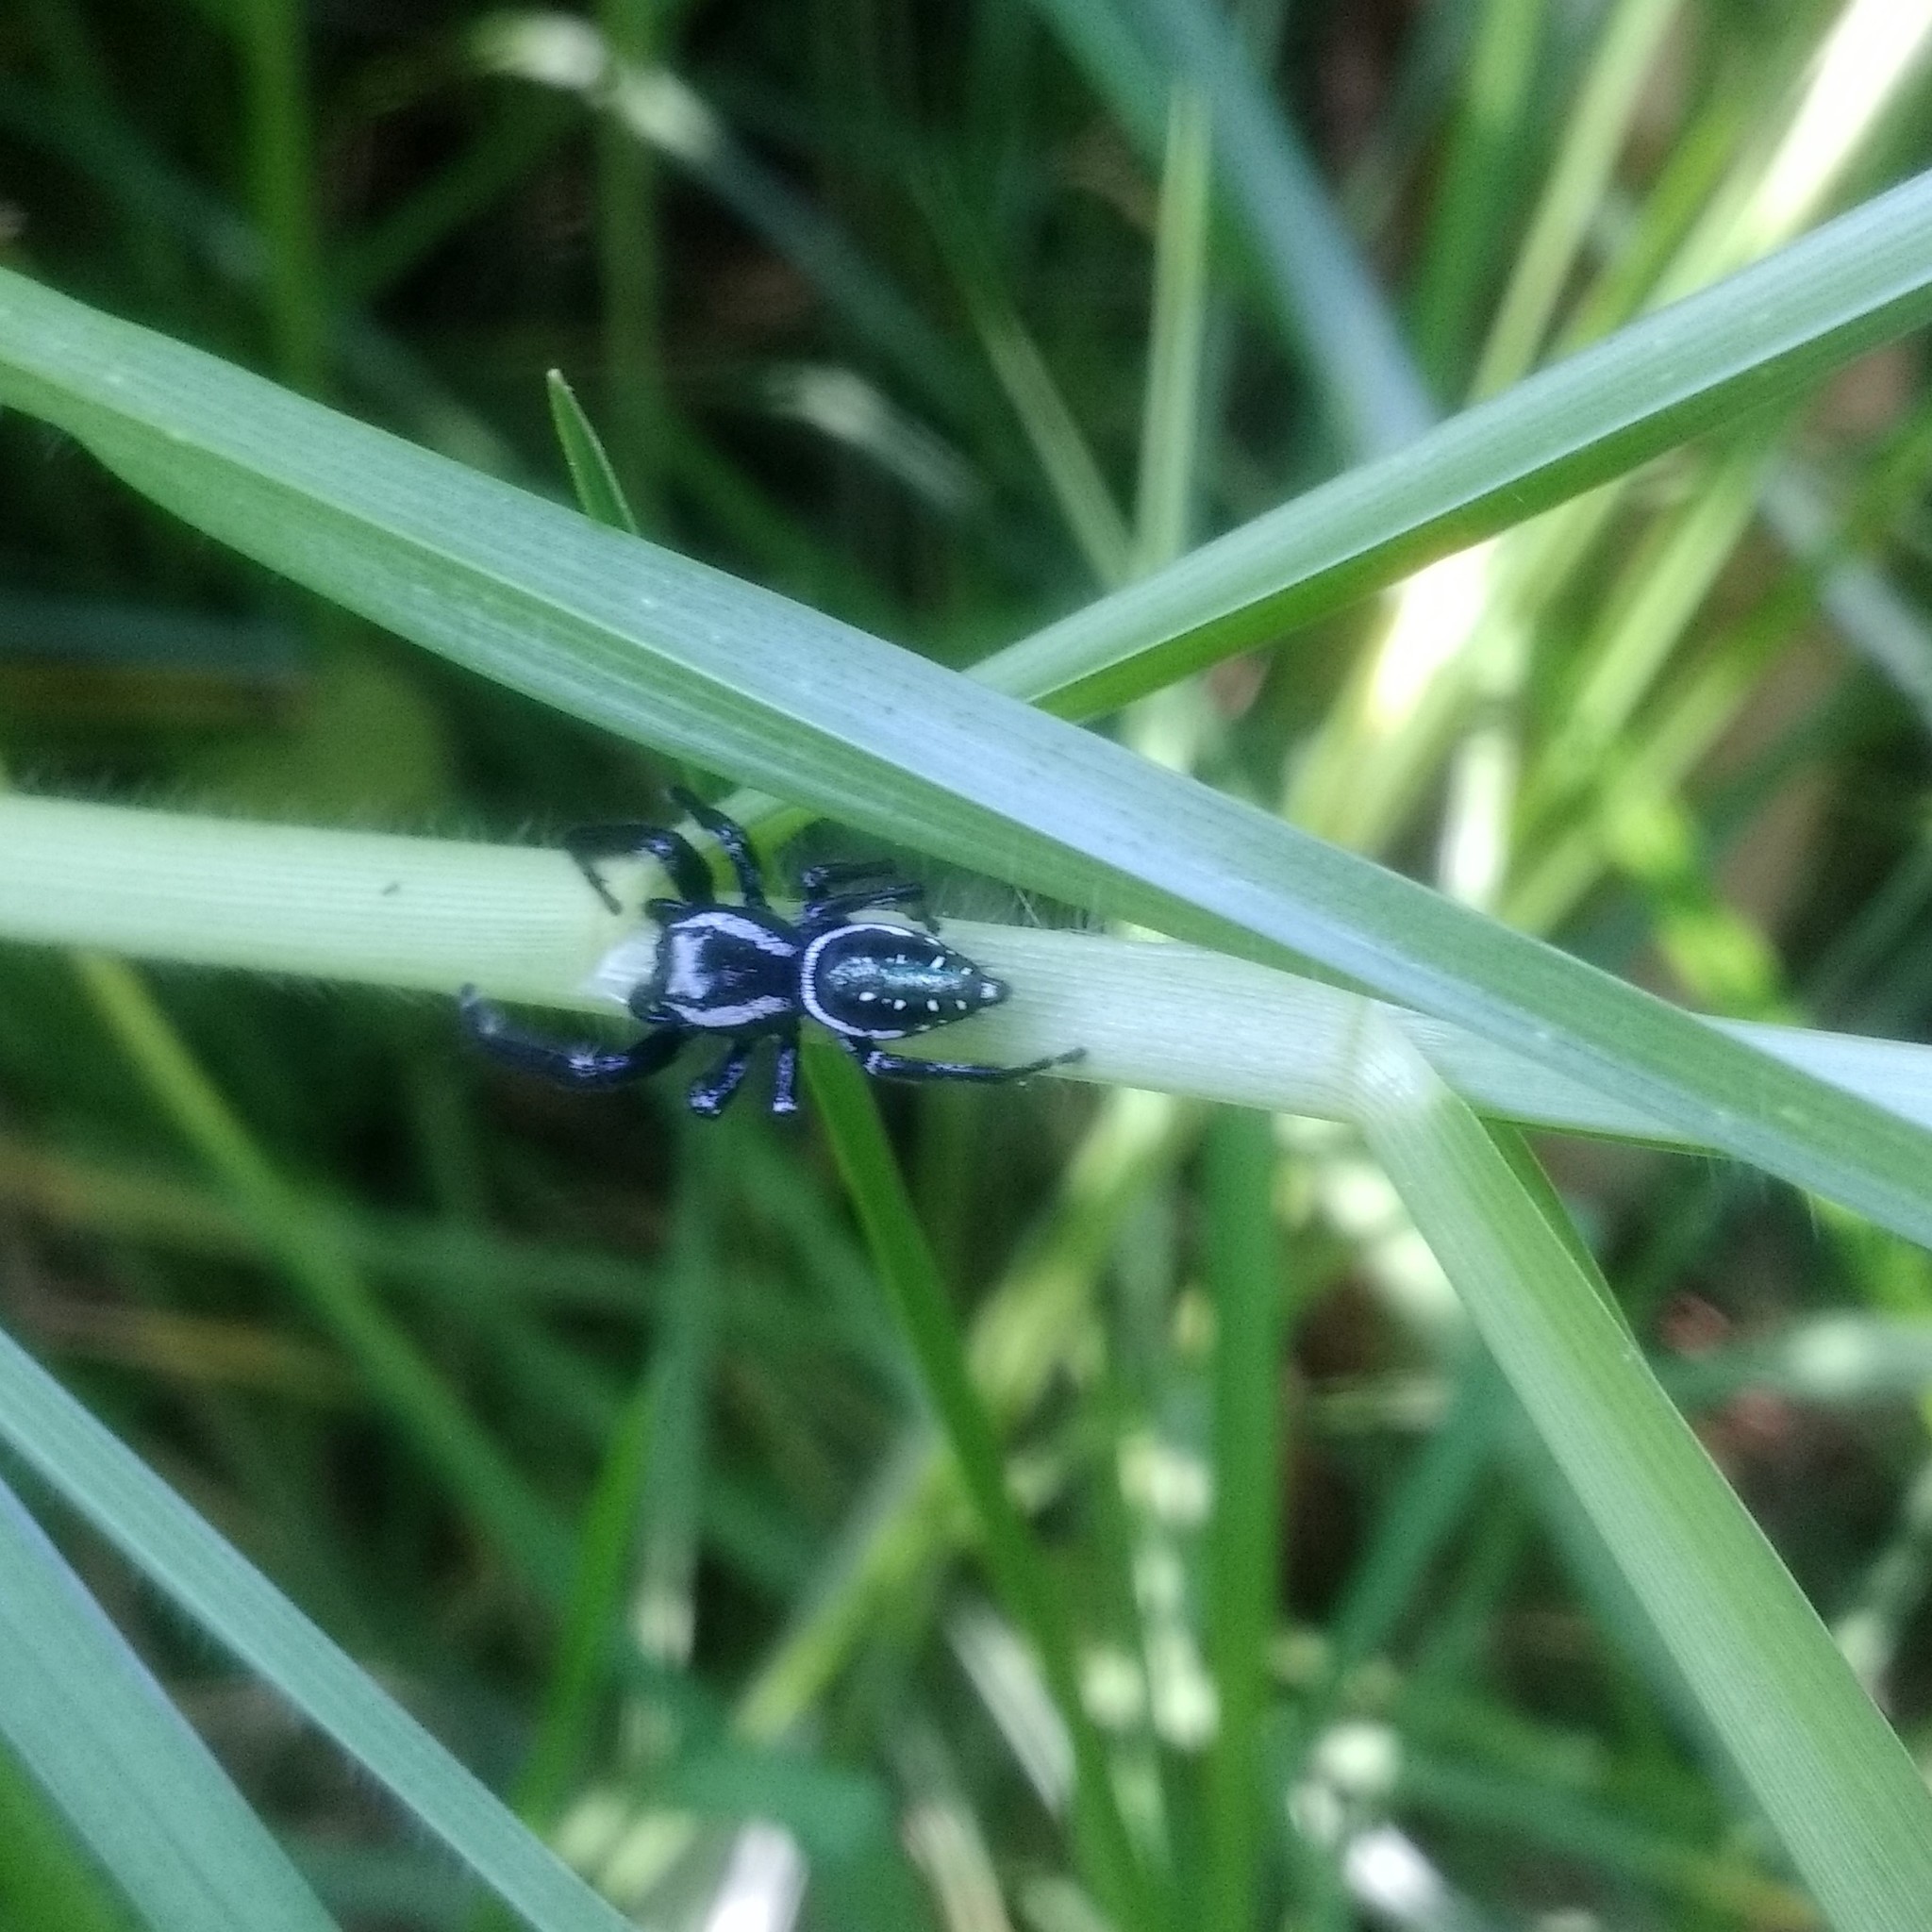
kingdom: Animalia
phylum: Arthropoda
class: Arachnida
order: Araneae
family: Salticidae
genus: Paraphidippus
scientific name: Paraphidippus aurantius
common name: Jumping spiders
